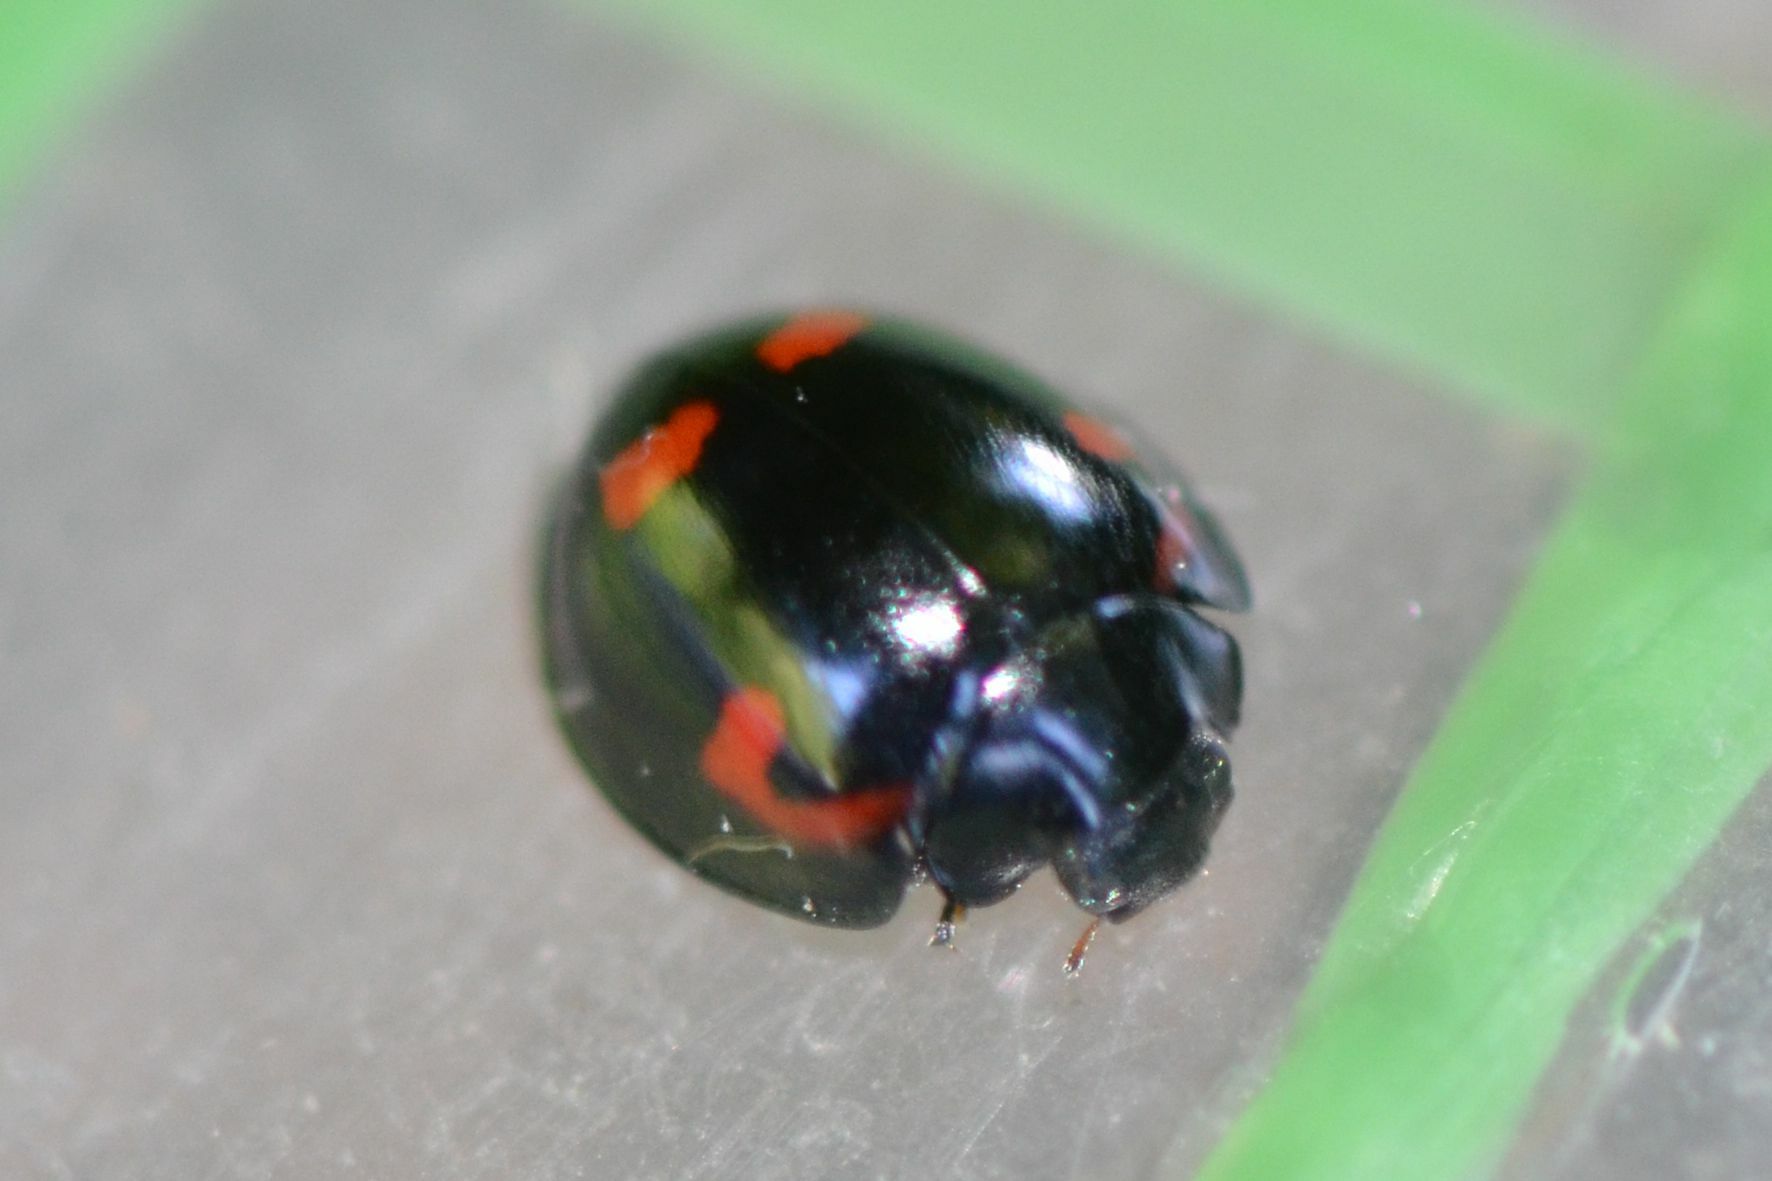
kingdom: Animalia
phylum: Arthropoda
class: Insecta
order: Coleoptera
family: Coccinellidae
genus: Brumus
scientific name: Brumus quadripustulatus
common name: Ladybird beetle
